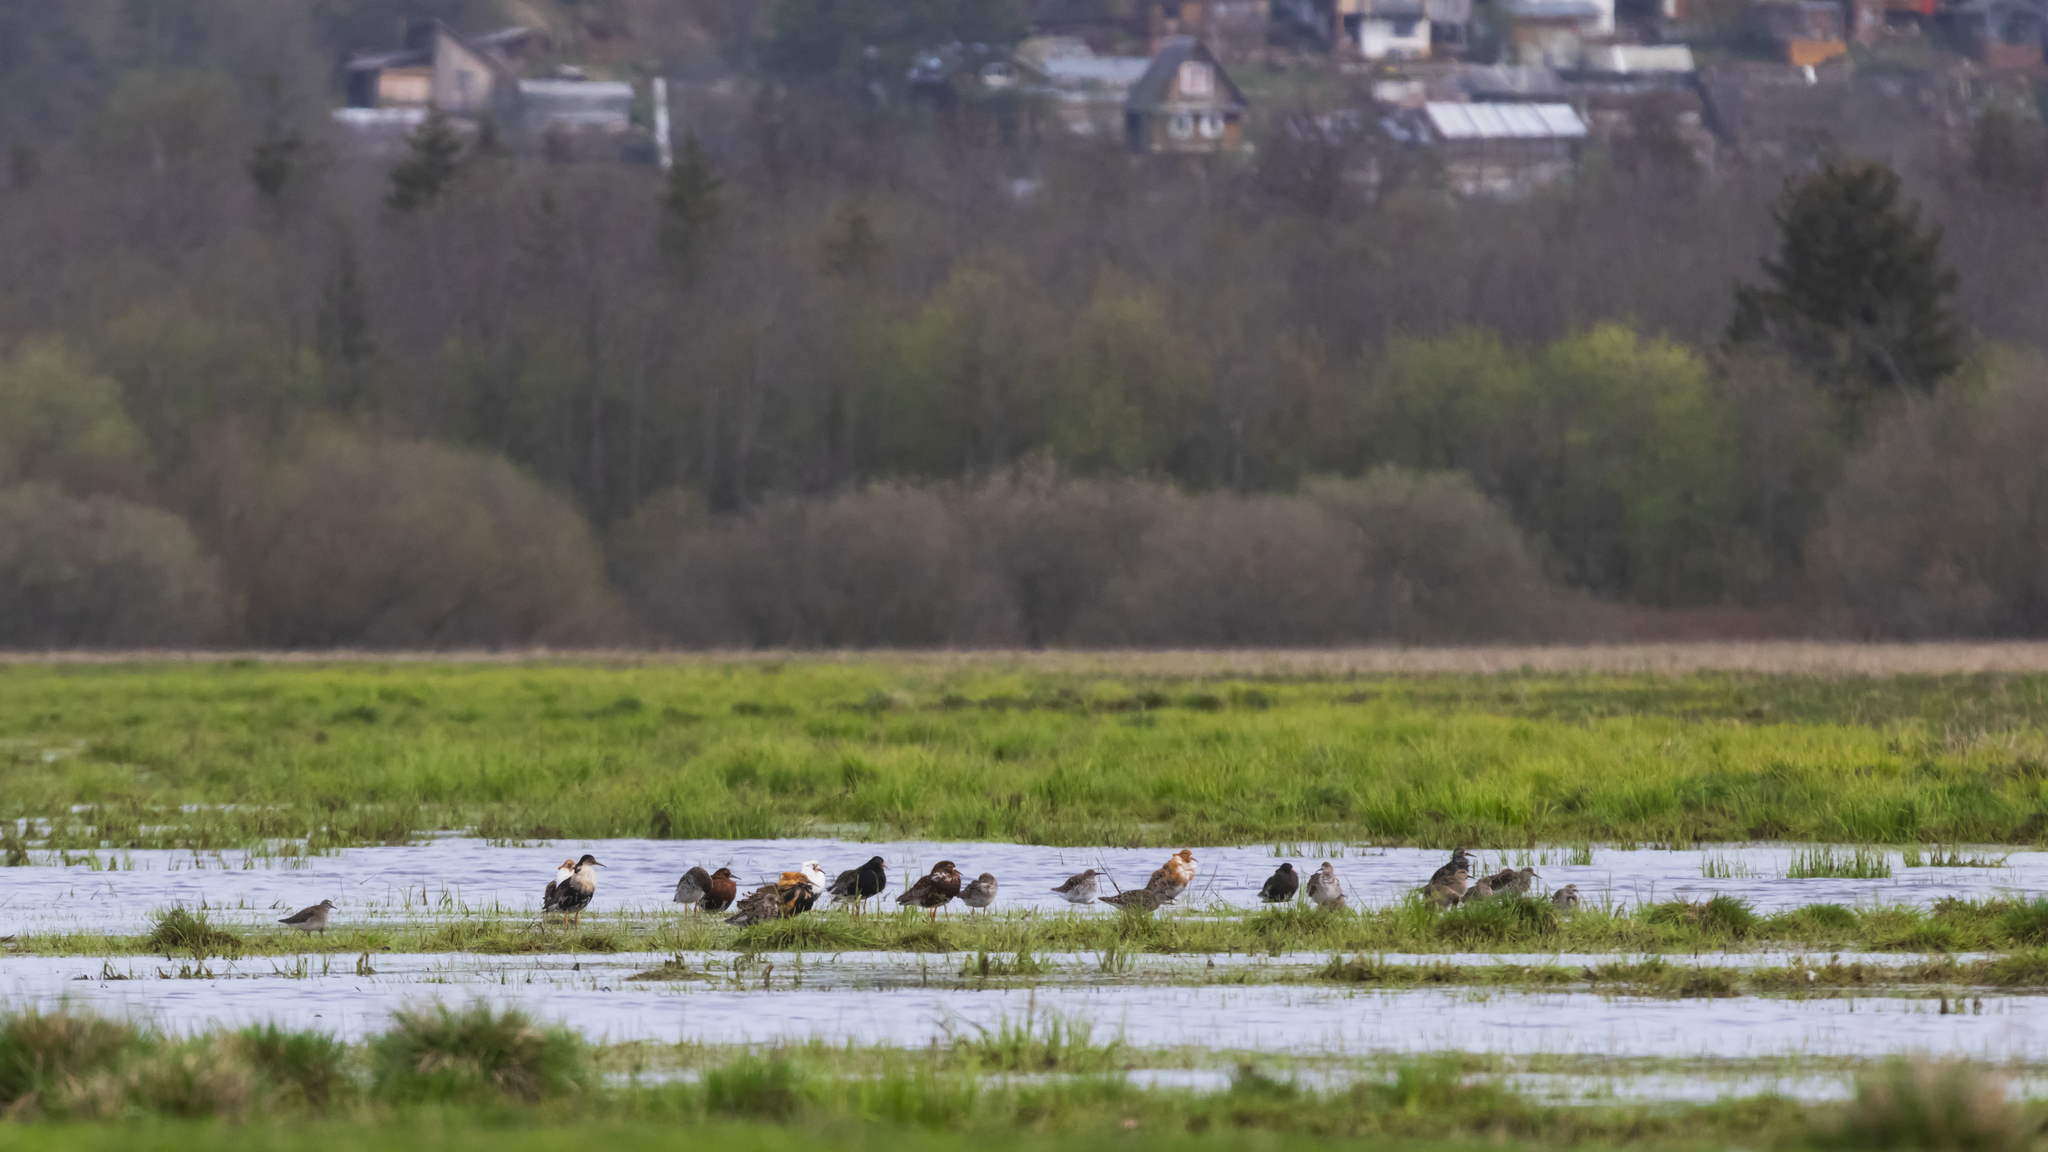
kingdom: Animalia
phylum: Chordata
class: Aves
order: Charadriiformes
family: Scolopacidae
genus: Calidris
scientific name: Calidris pugnax
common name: Ruff
